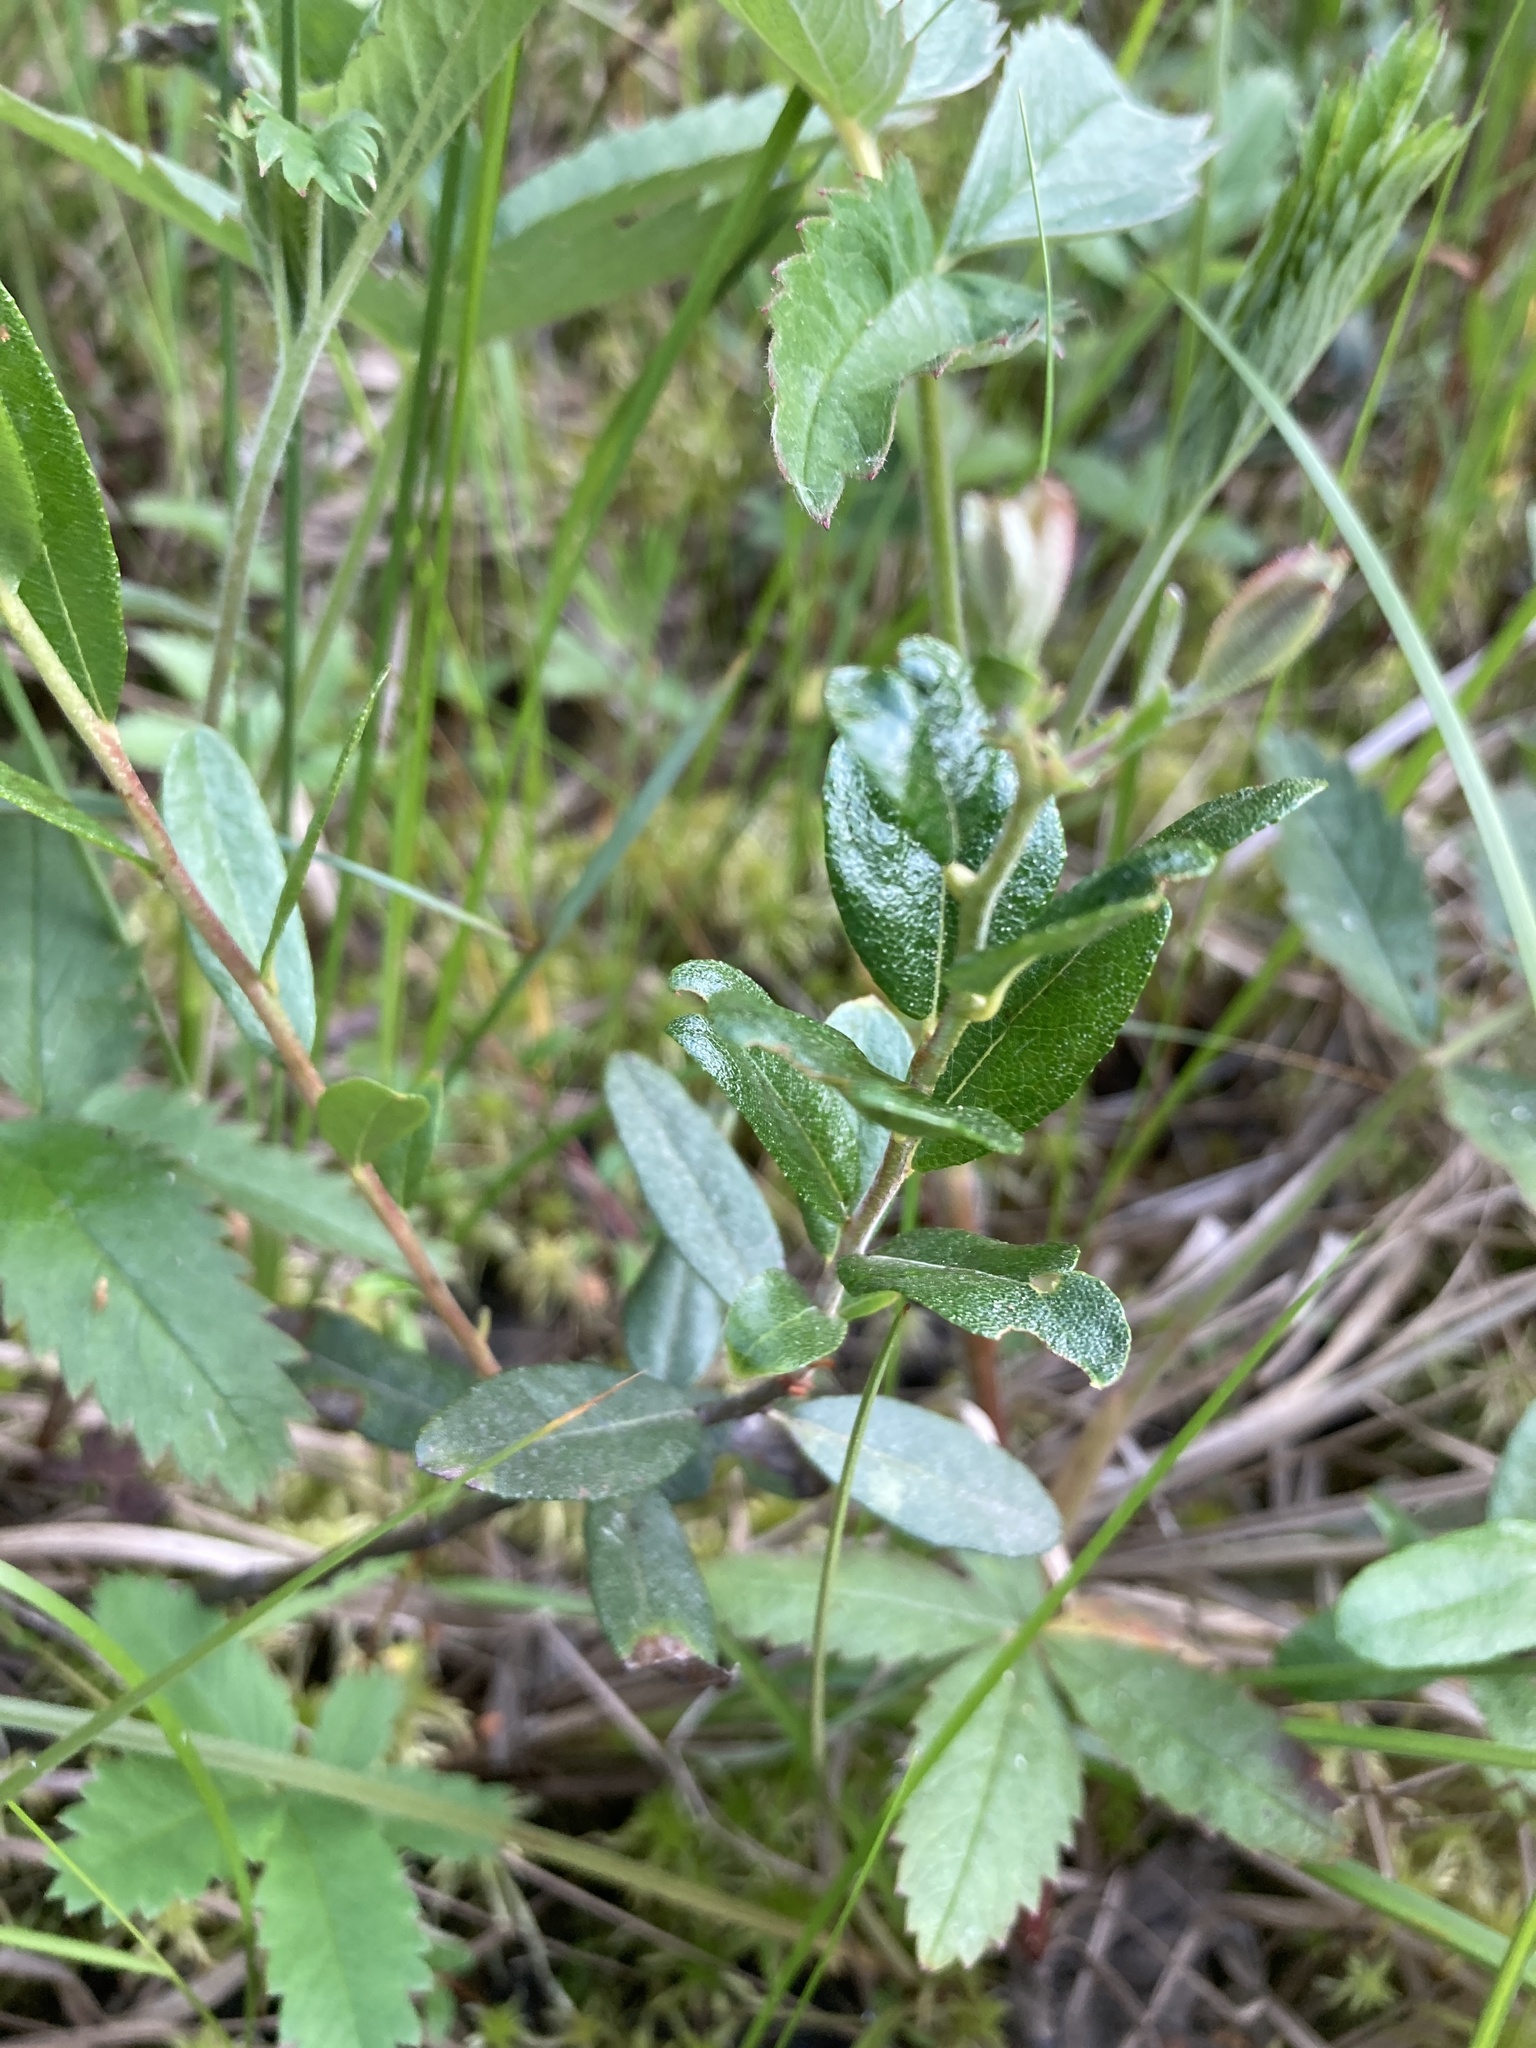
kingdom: Plantae
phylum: Tracheophyta
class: Magnoliopsida
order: Ericales
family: Ericaceae
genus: Chamaedaphne
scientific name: Chamaedaphne calyculata
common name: Leatherleaf
